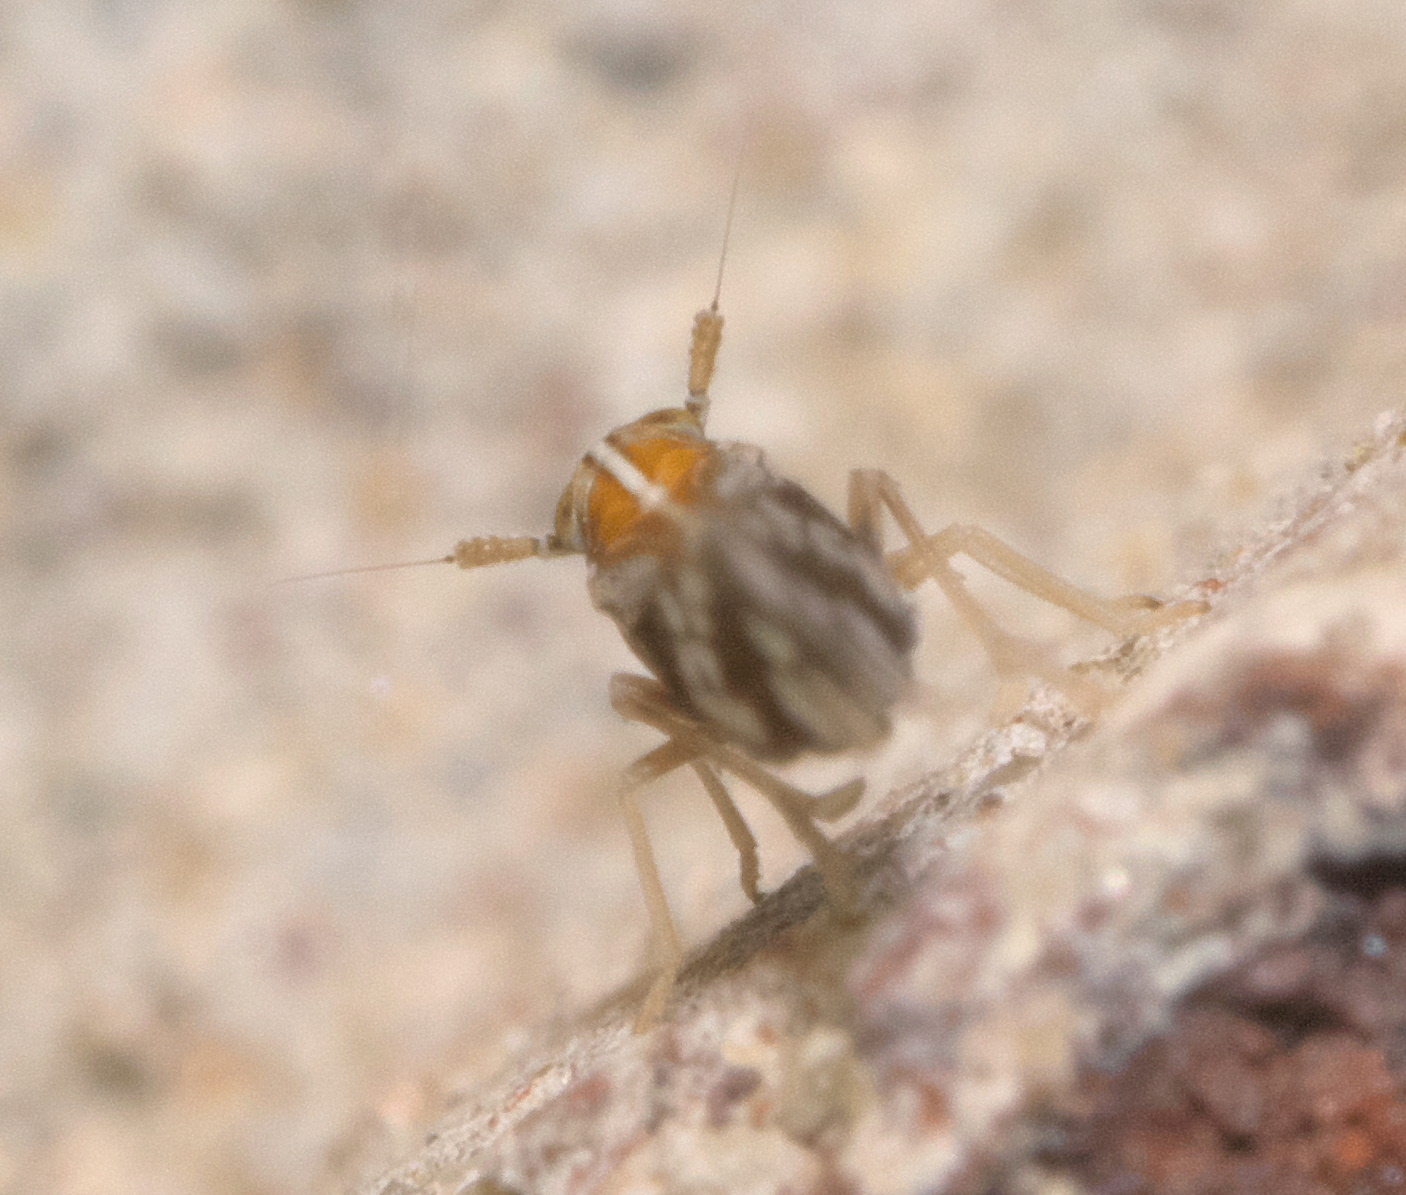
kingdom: Animalia
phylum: Arthropoda
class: Insecta
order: Hemiptera
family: Delphacidae
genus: Liburniella
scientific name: Liburniella ornata
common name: Ornate planthopper
